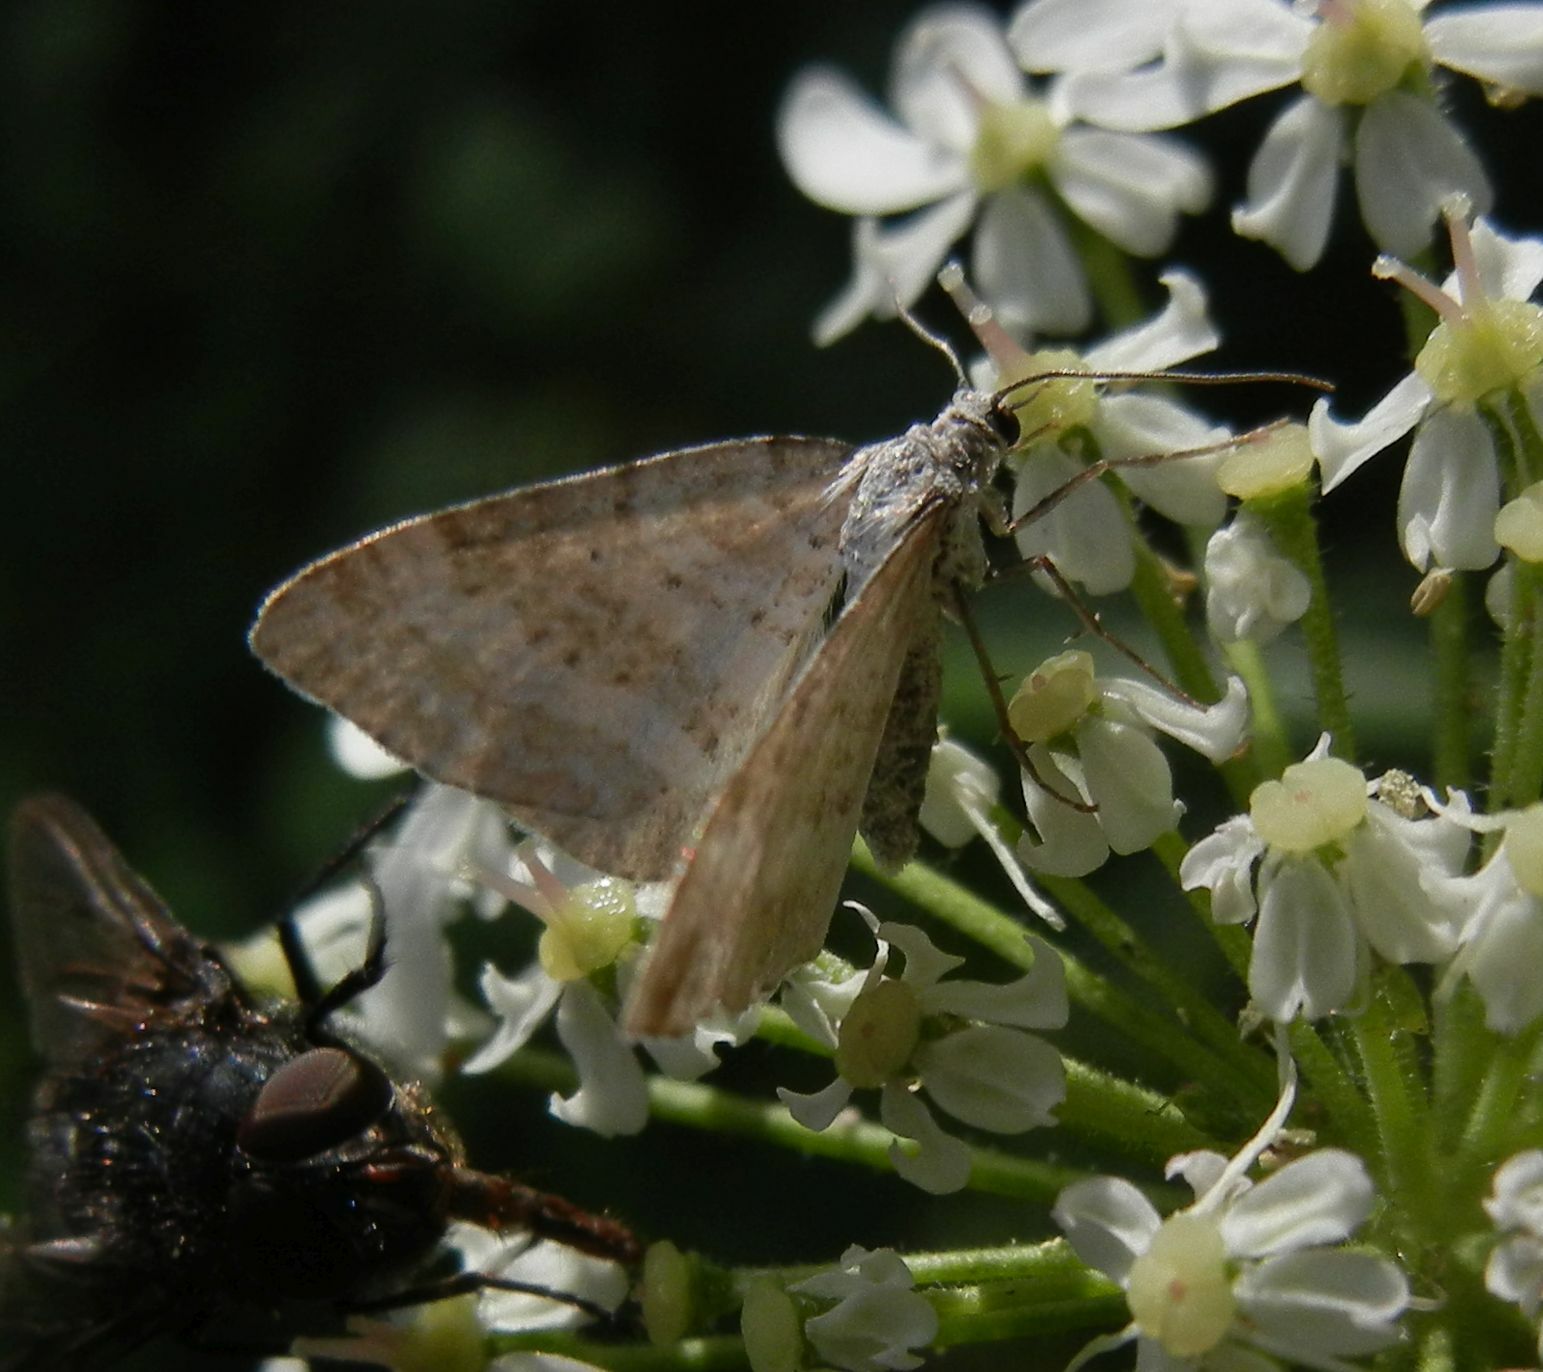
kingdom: Animalia
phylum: Arthropoda
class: Insecta
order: Lepidoptera
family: Geometridae
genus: Perizoma
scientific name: Perizoma albulata
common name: Grass rivulet
